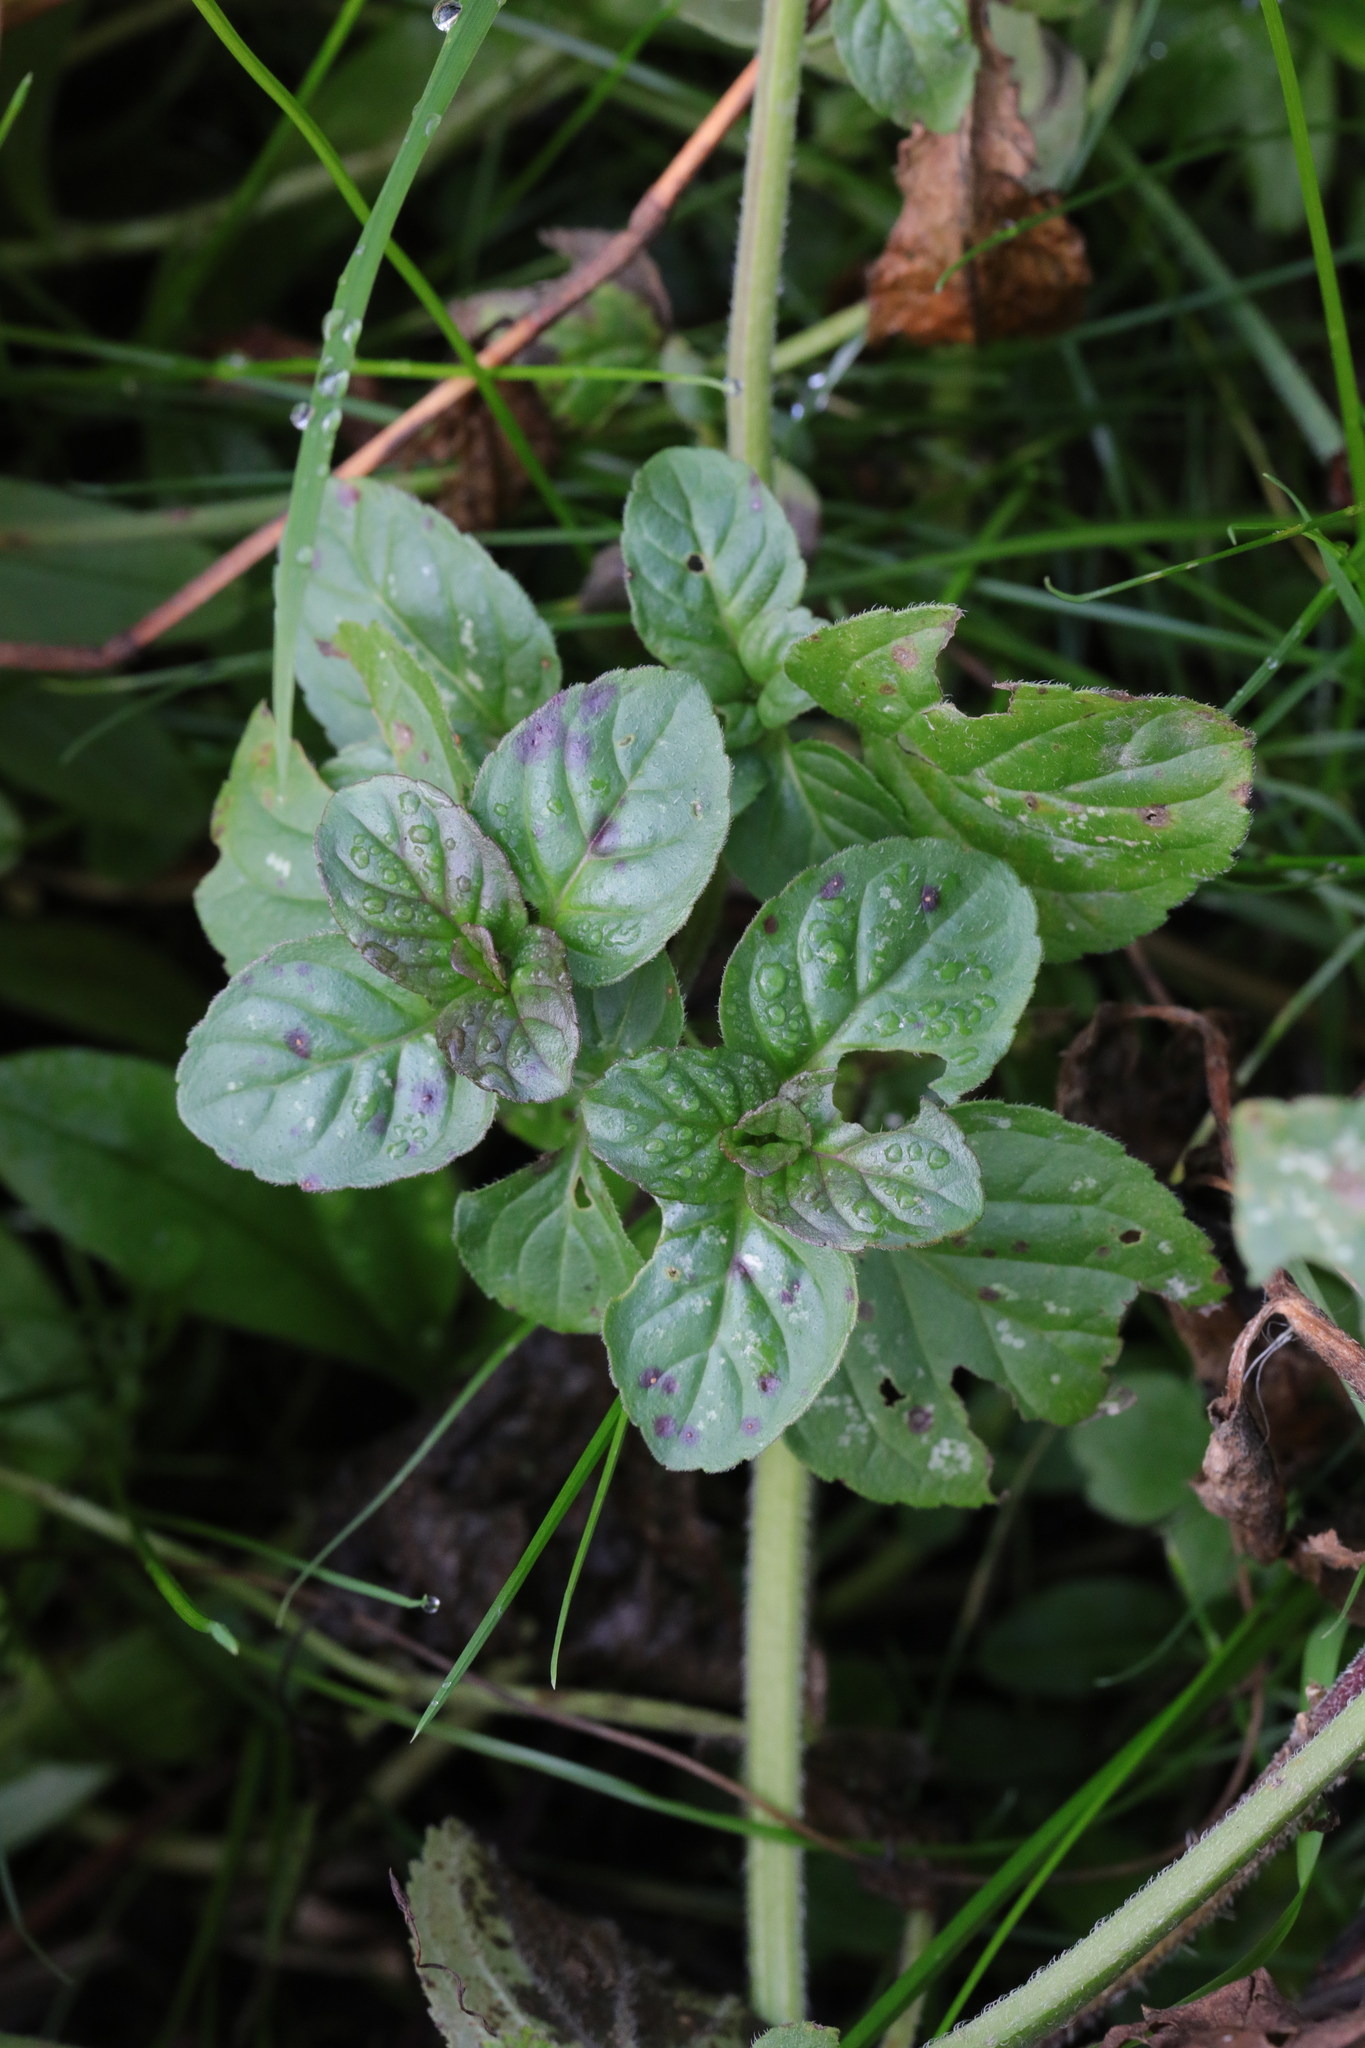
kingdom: Plantae
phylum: Tracheophyta
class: Magnoliopsida
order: Lamiales
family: Lamiaceae
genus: Mentha
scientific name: Mentha aquatica
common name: Water mint
